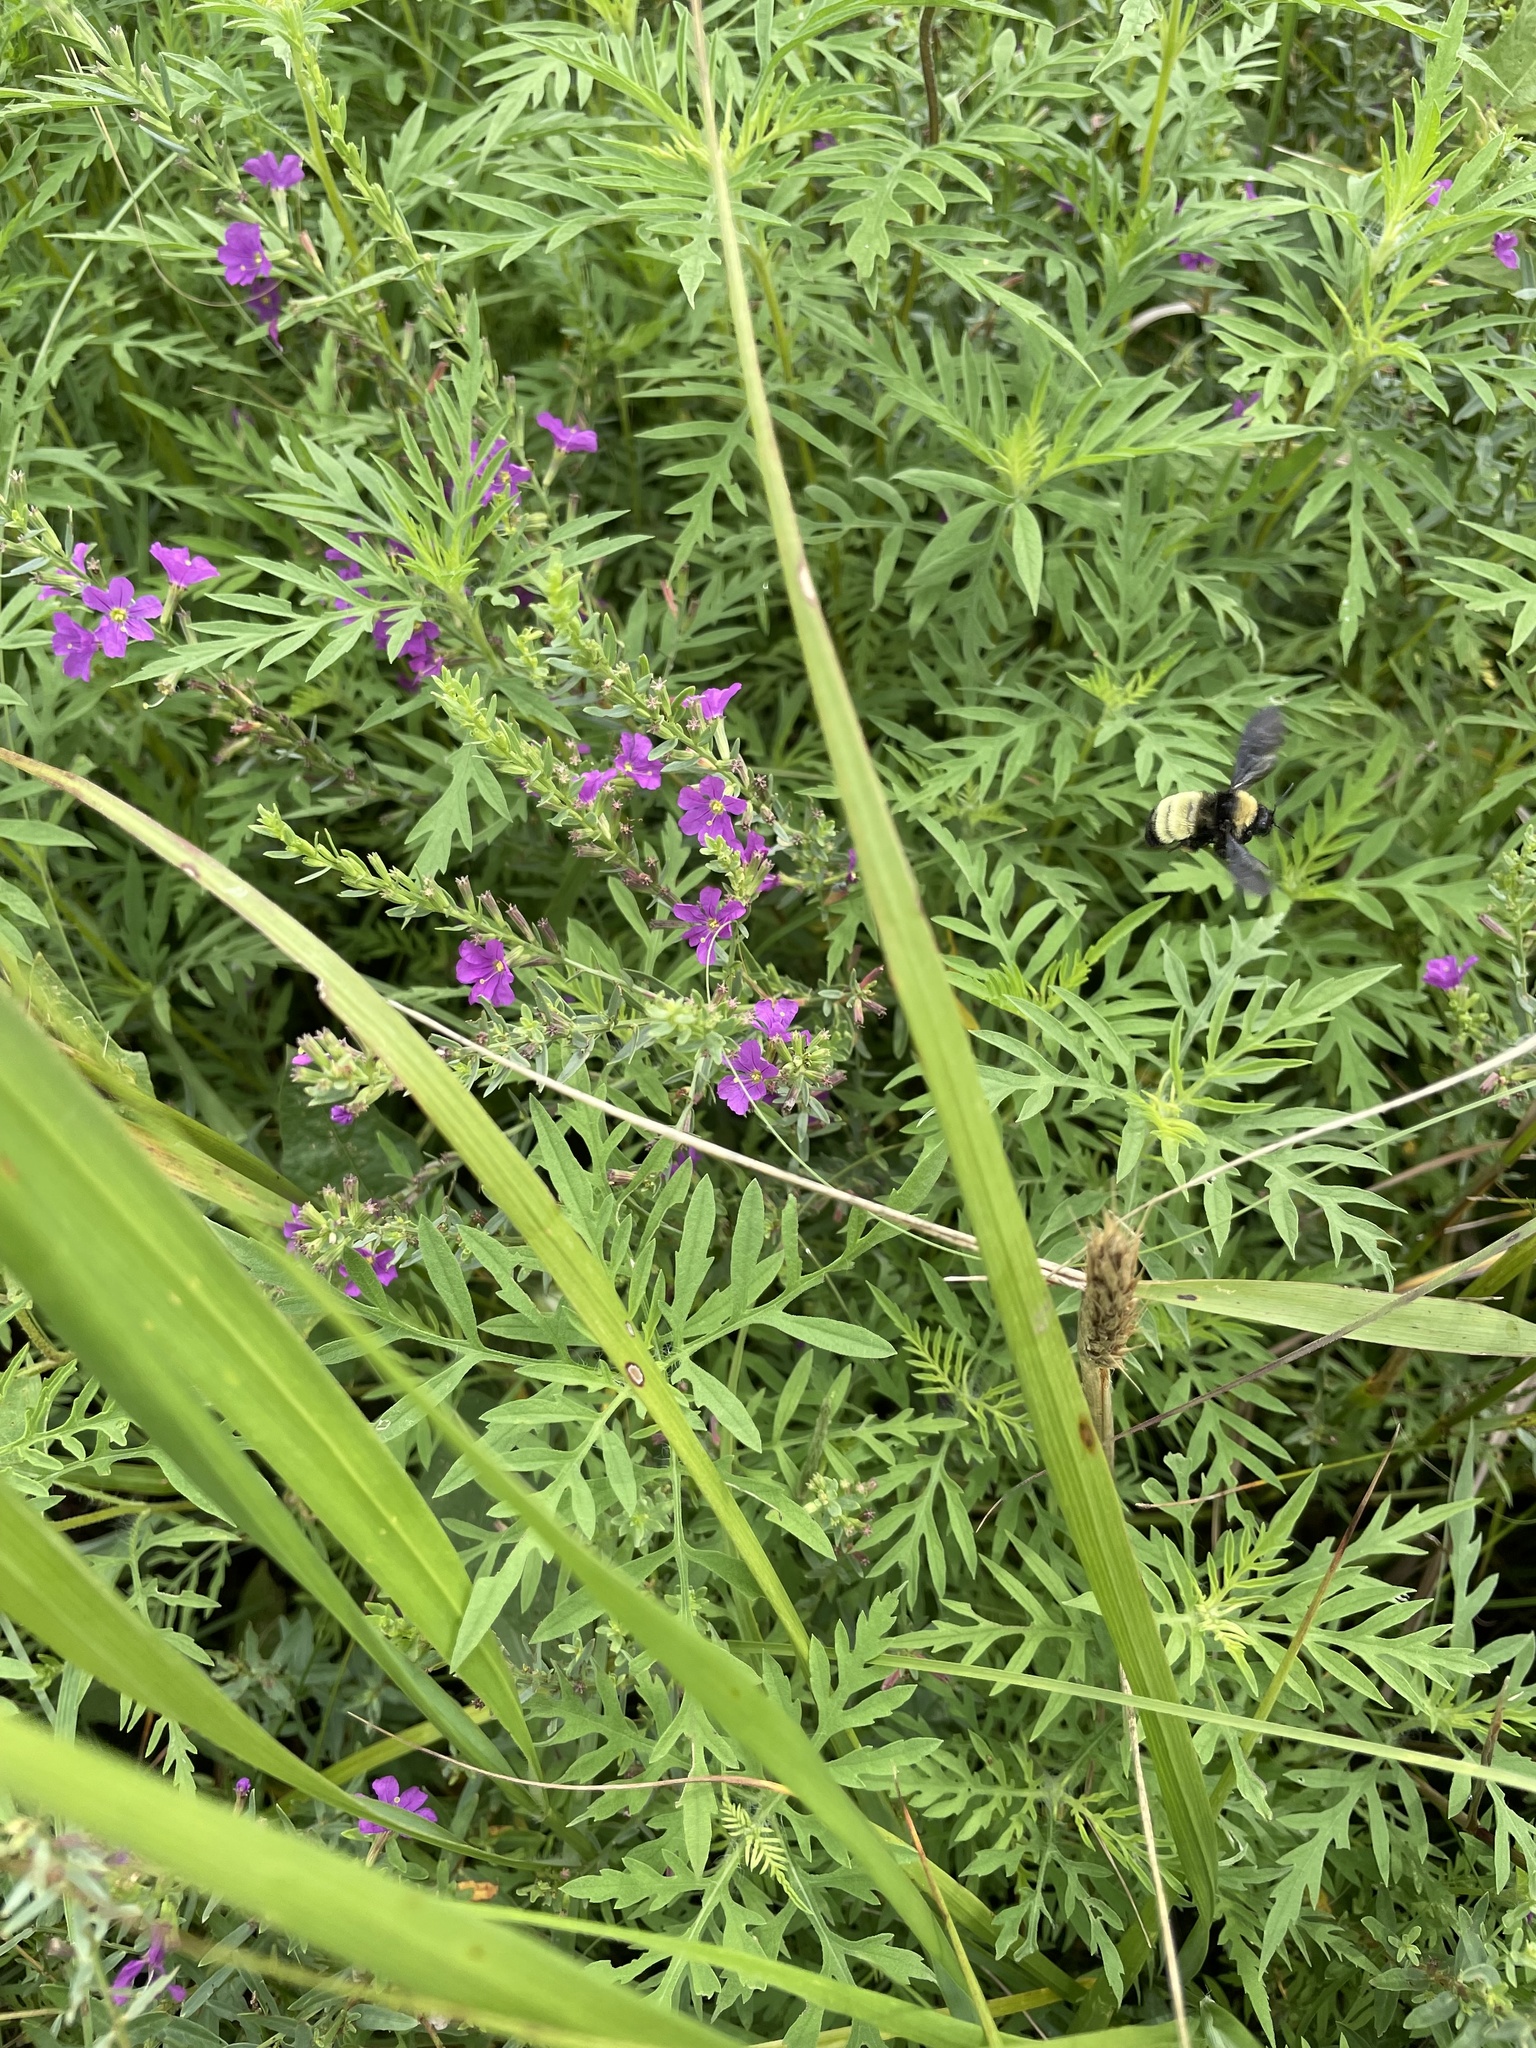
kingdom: Animalia
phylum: Arthropoda
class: Insecta
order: Hymenoptera
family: Apidae
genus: Bombus
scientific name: Bombus pensylvanicus
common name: Bumble bee
